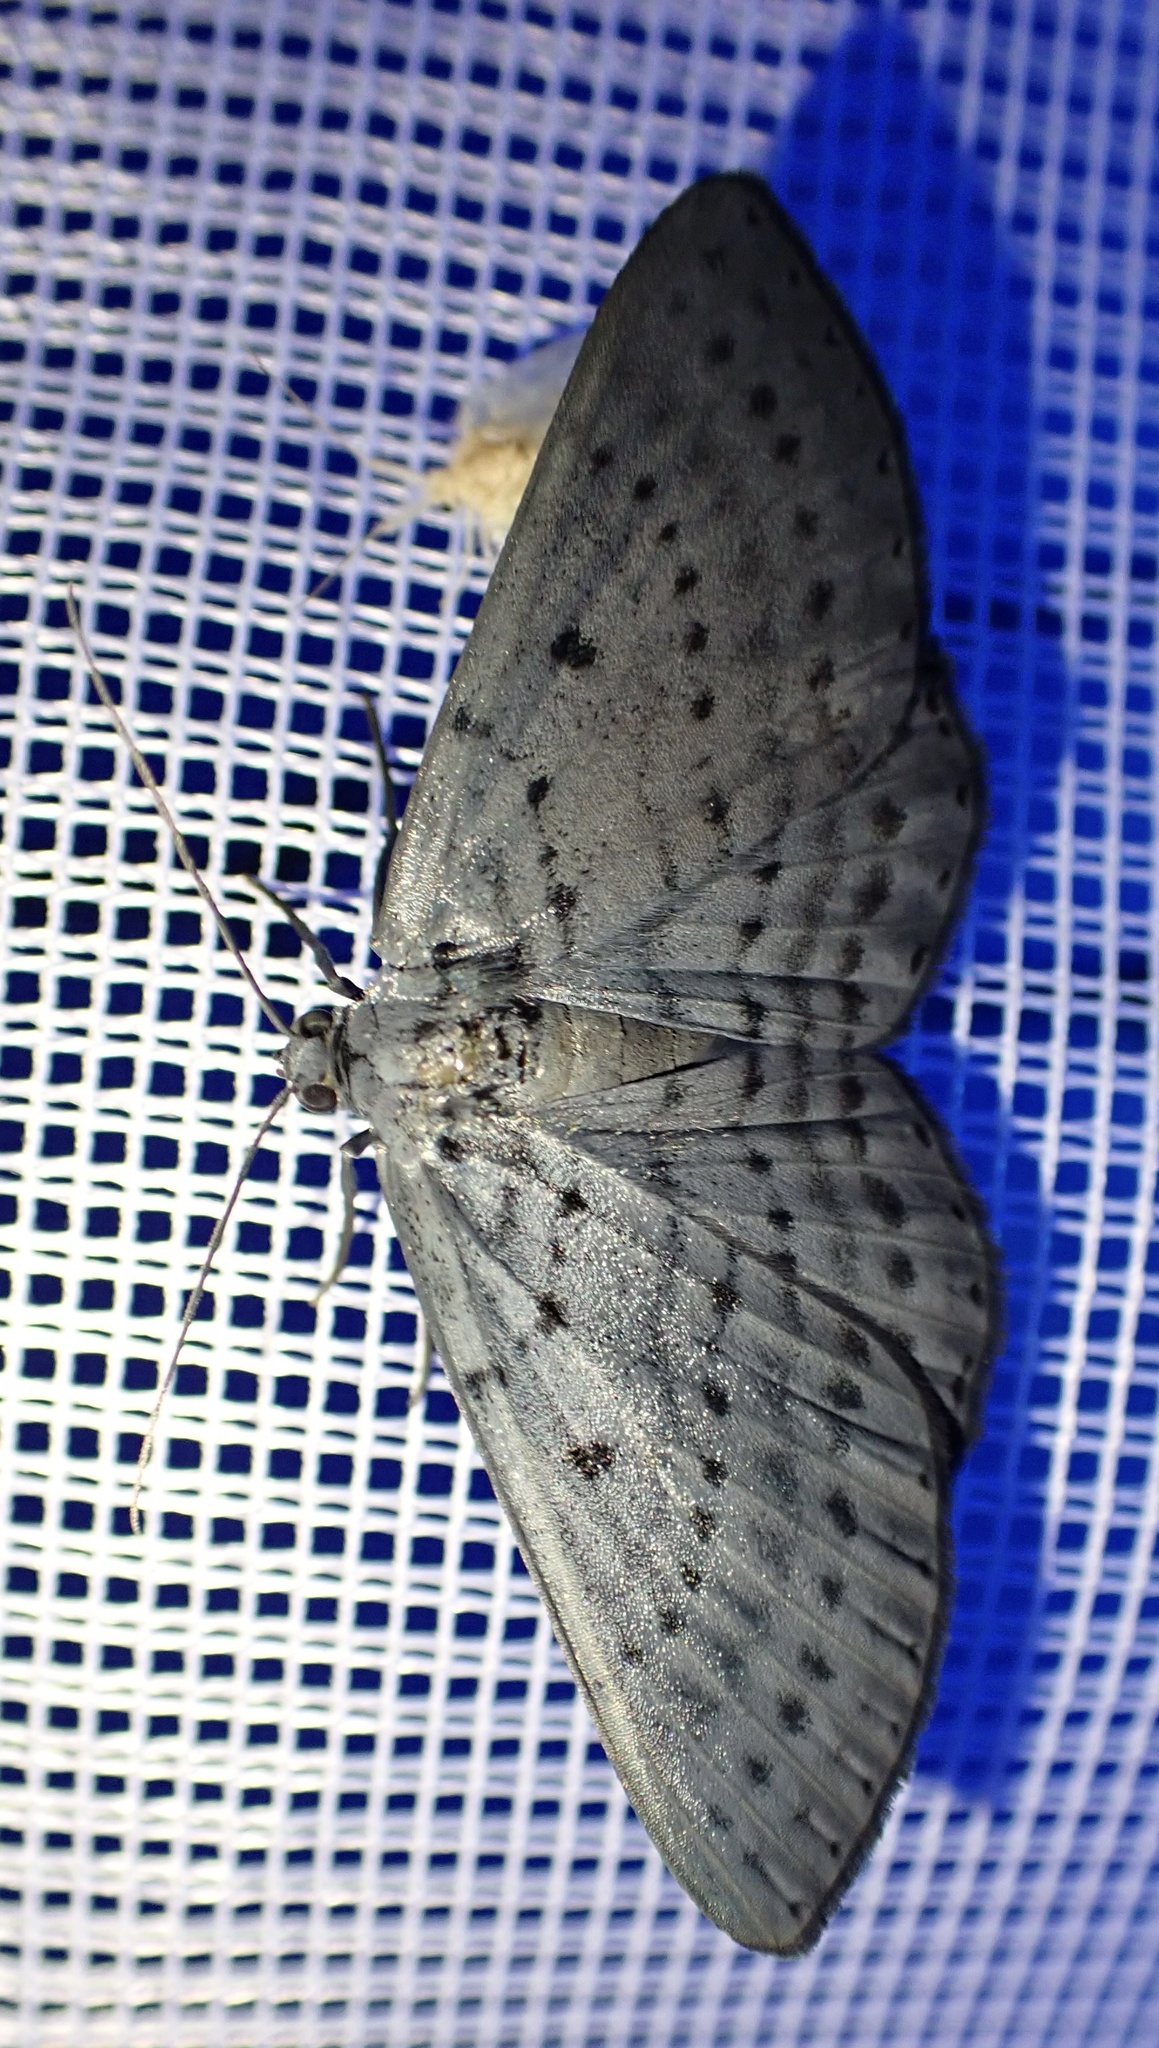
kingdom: Animalia
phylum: Arthropoda
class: Insecta
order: Lepidoptera
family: Geometridae
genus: Craspedosis
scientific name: Craspedosis alternata
